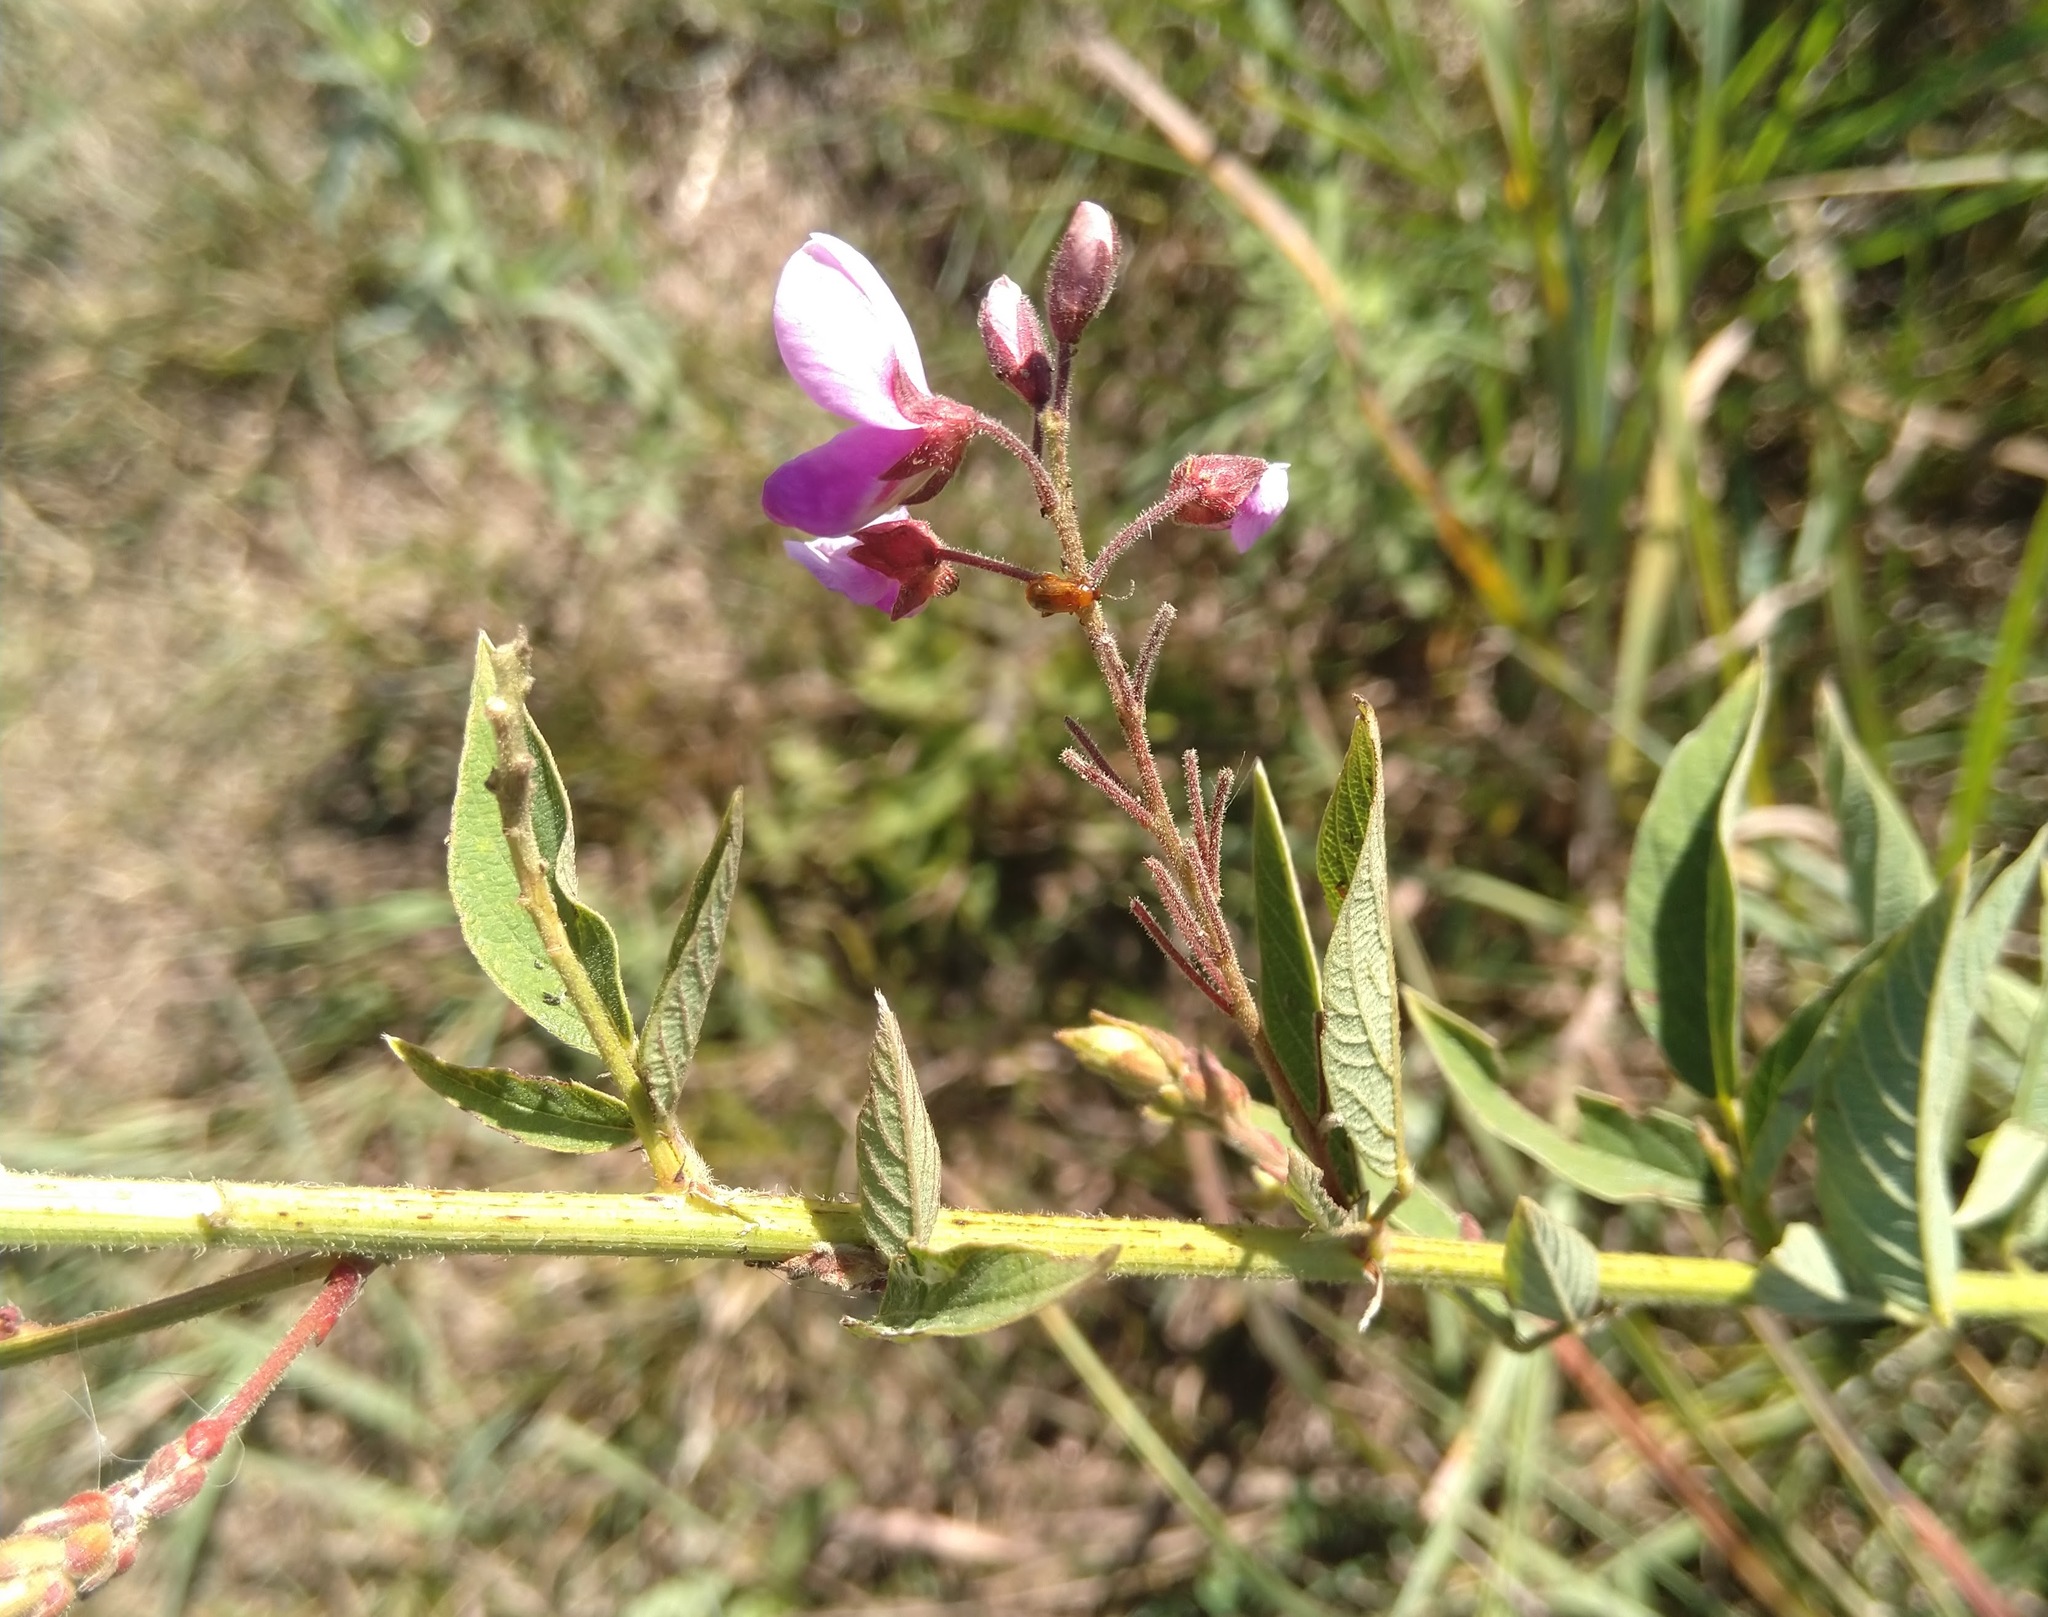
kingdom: Plantae
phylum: Tracheophyta
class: Magnoliopsida
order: Fabales
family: Fabaceae
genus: Desmodium
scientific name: Desmodium canadense
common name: Canada tick-trefoil
